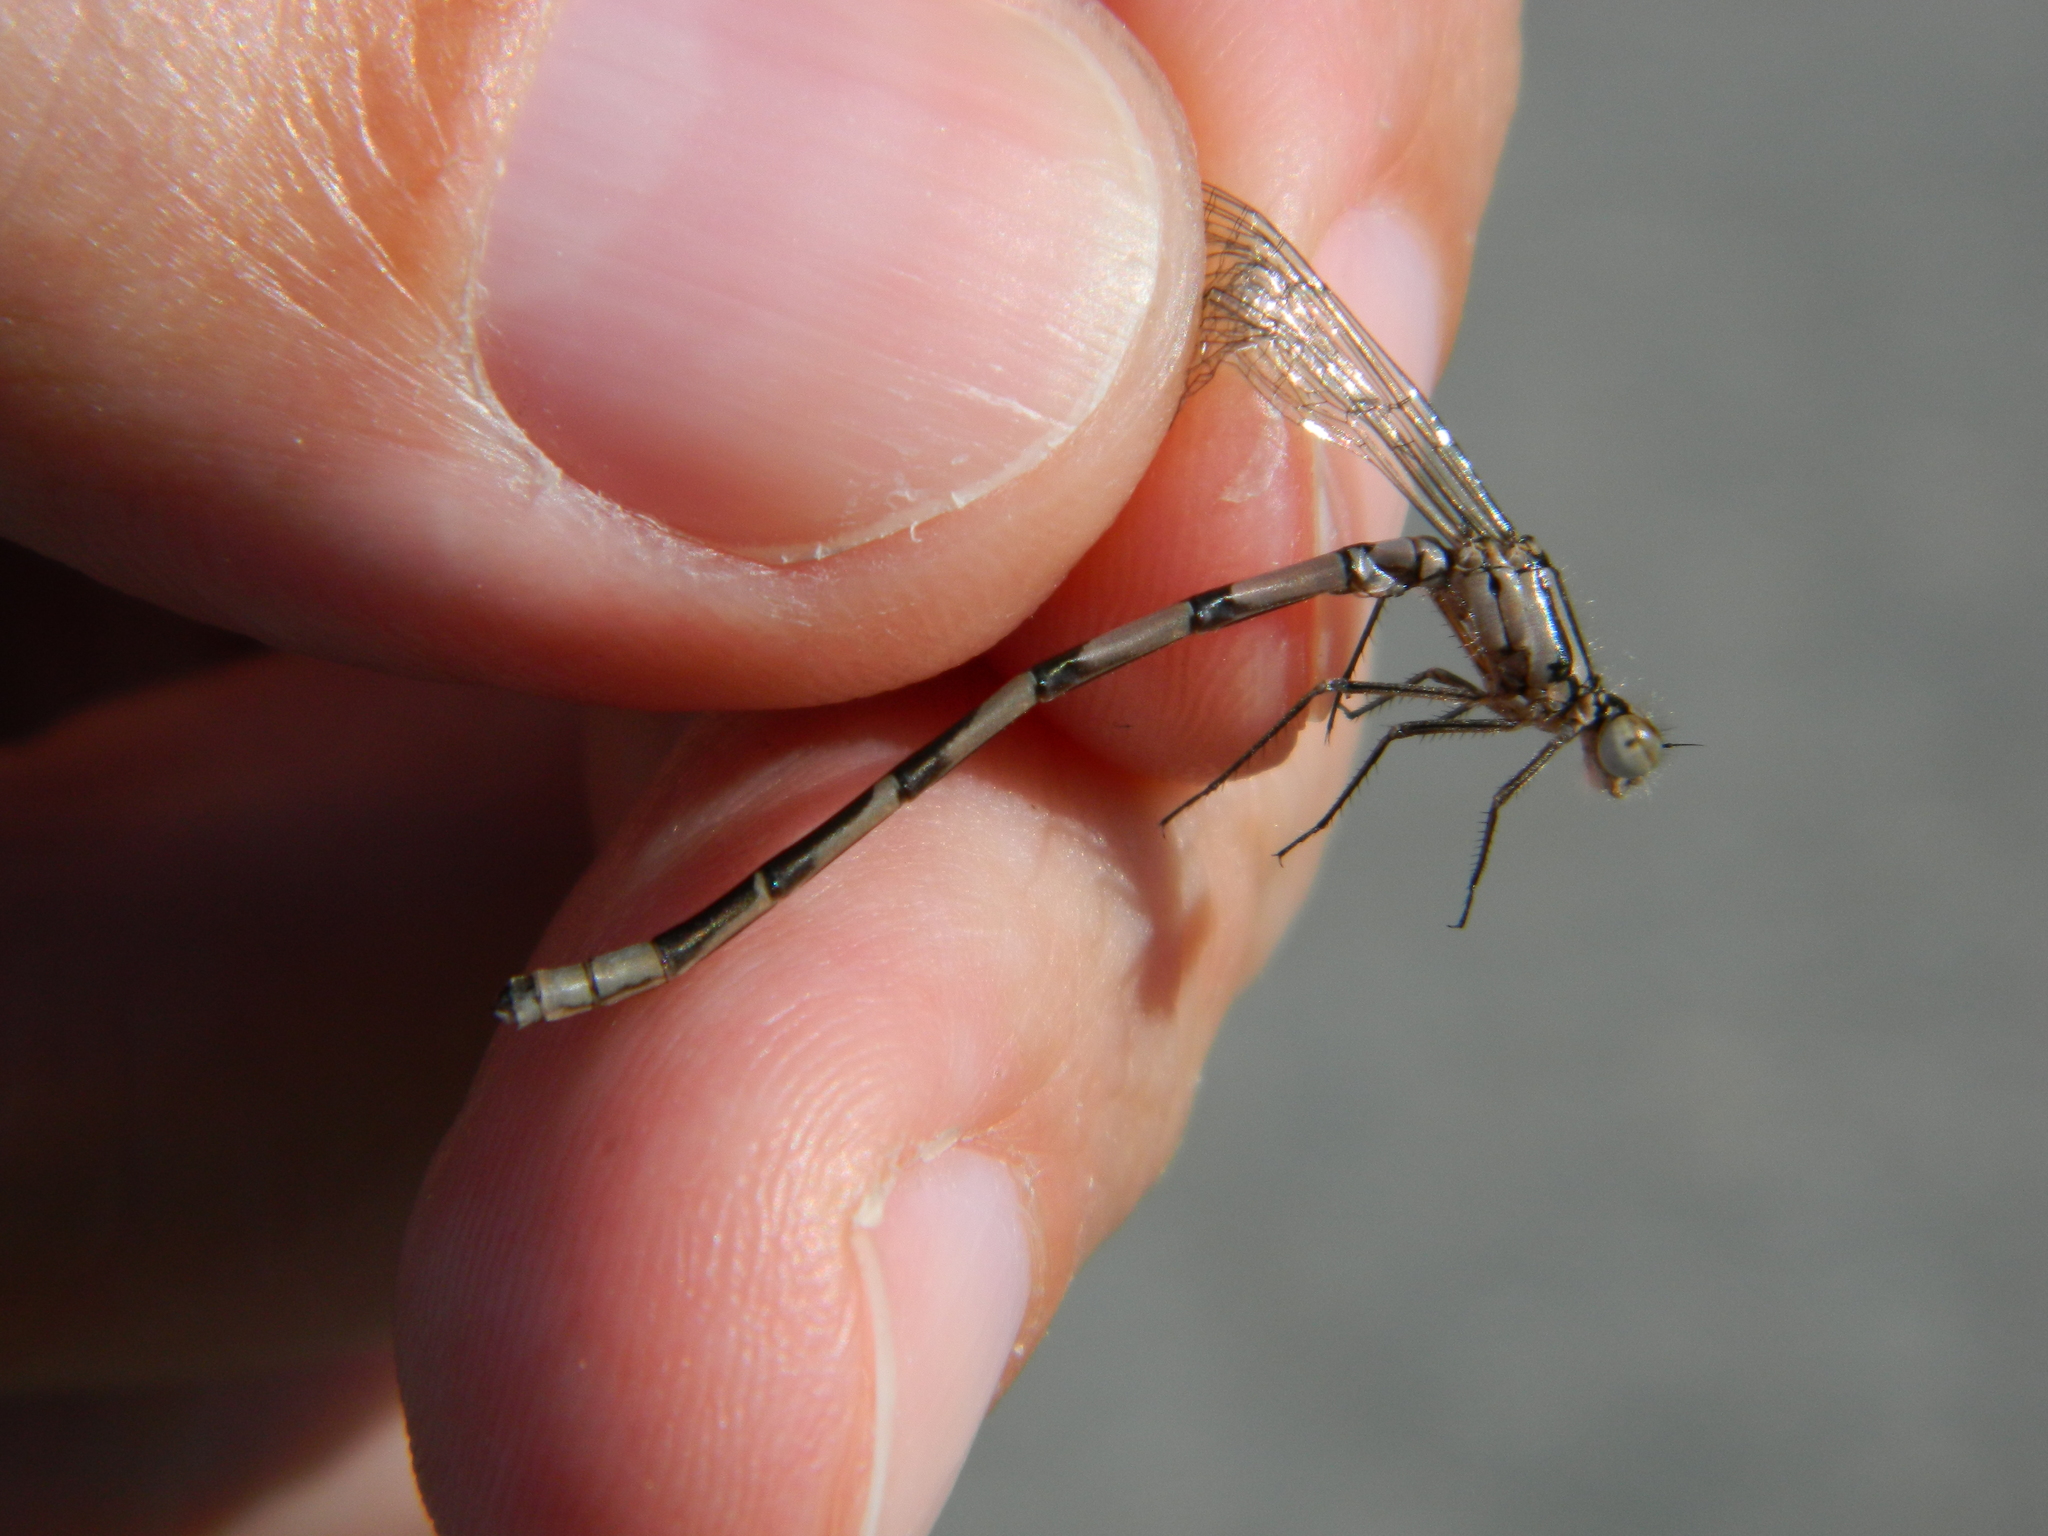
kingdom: Animalia
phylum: Arthropoda
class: Insecta
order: Odonata
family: Coenagrionidae
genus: Enallagma
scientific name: Enallagma vernale
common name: Vernal bluet
